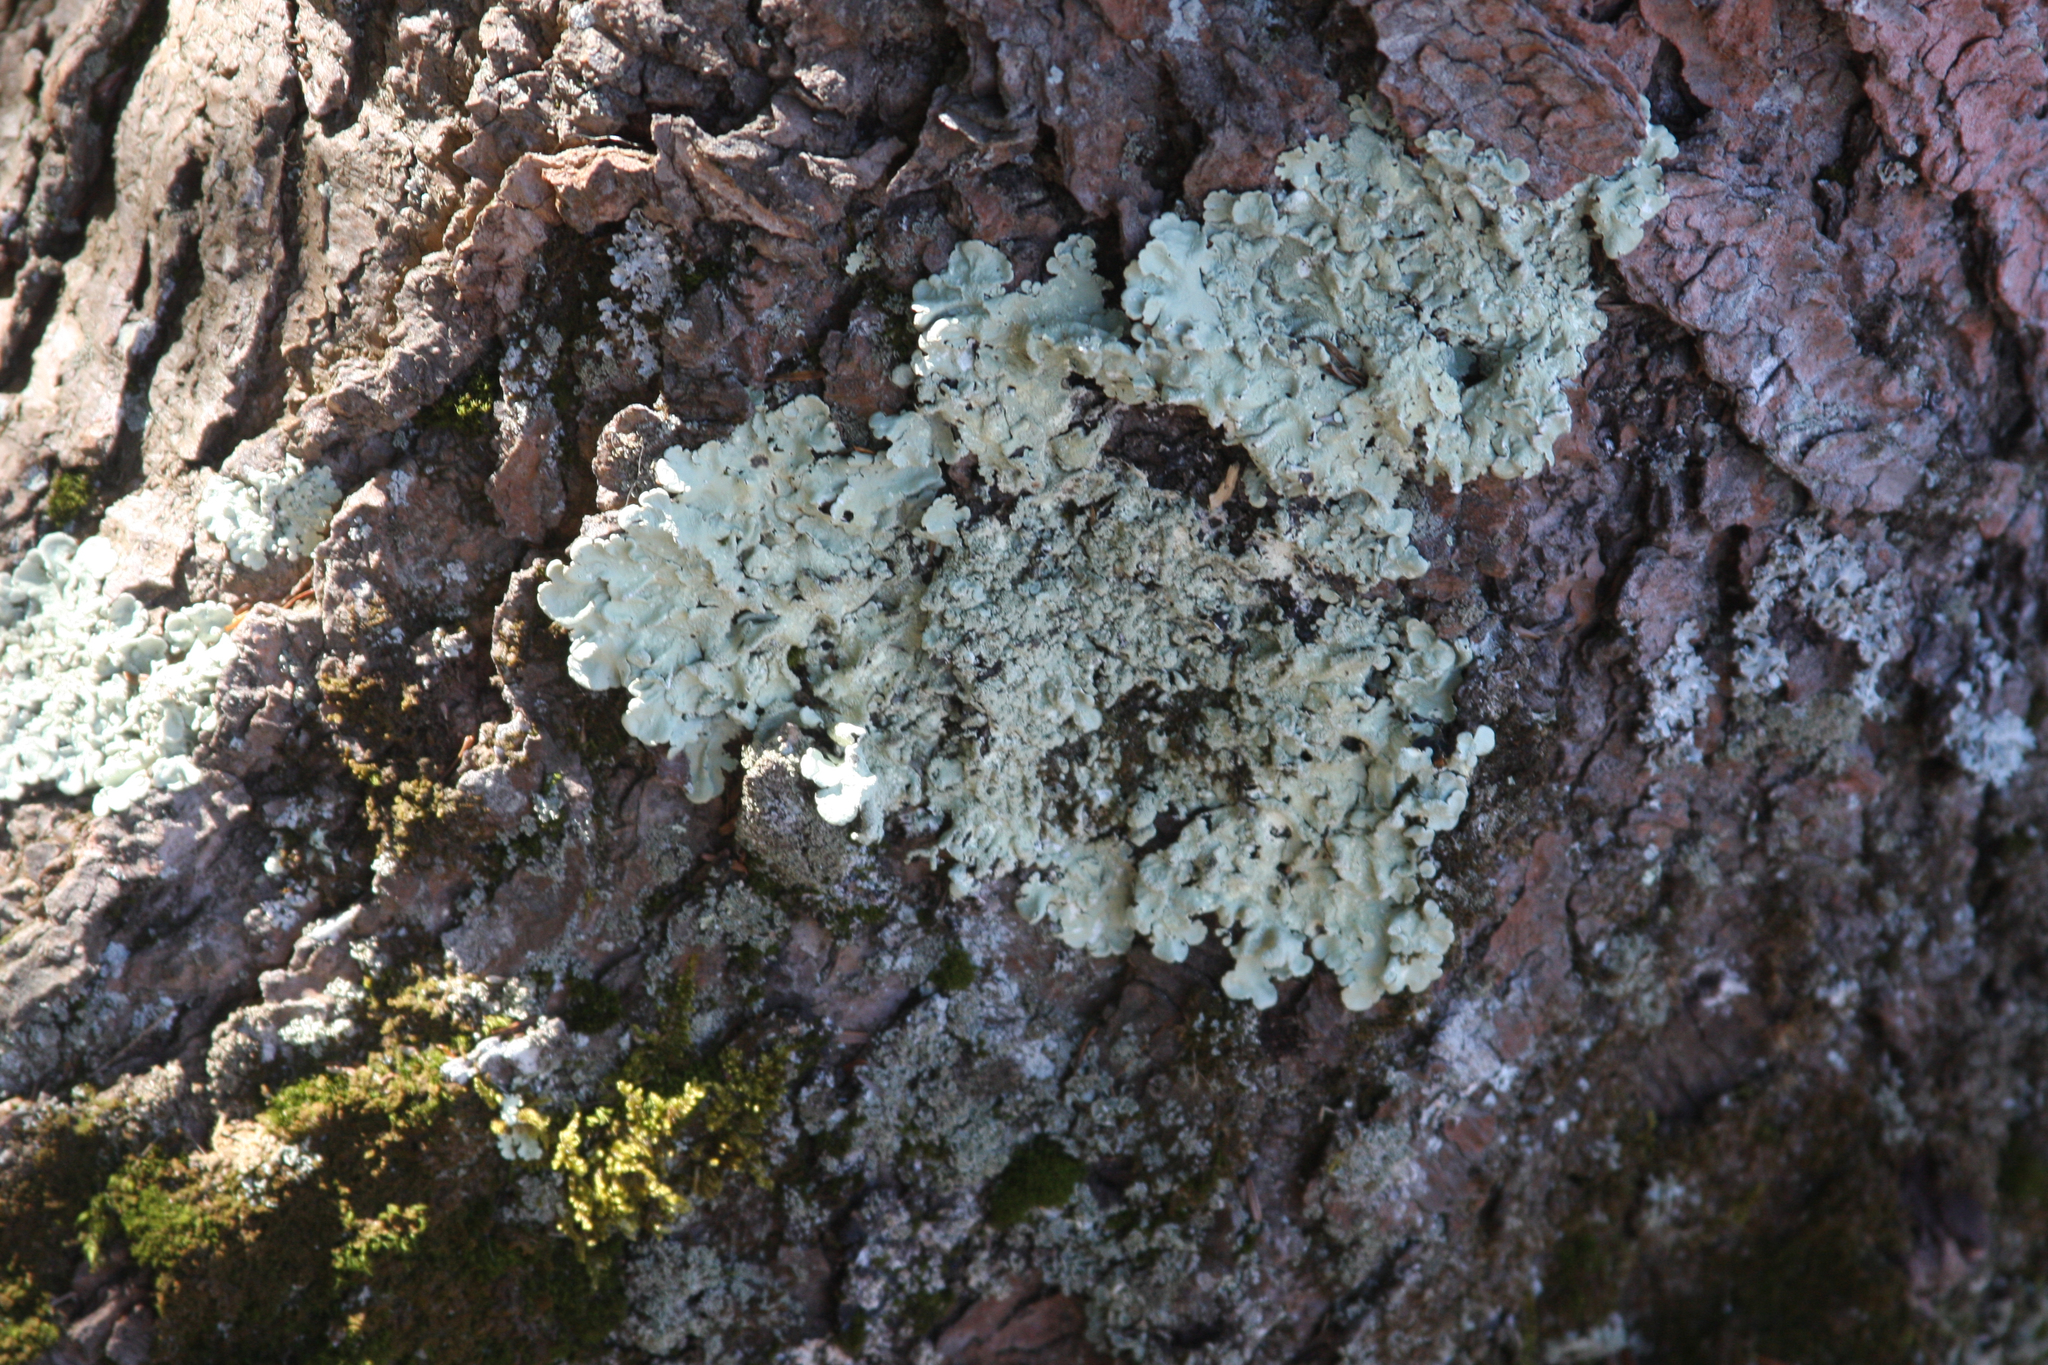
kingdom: Fungi
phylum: Ascomycota
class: Lecanoromycetes
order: Lecanorales
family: Parmeliaceae
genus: Flavoparmelia
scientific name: Flavoparmelia caperata
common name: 40-mile per hour lichen
